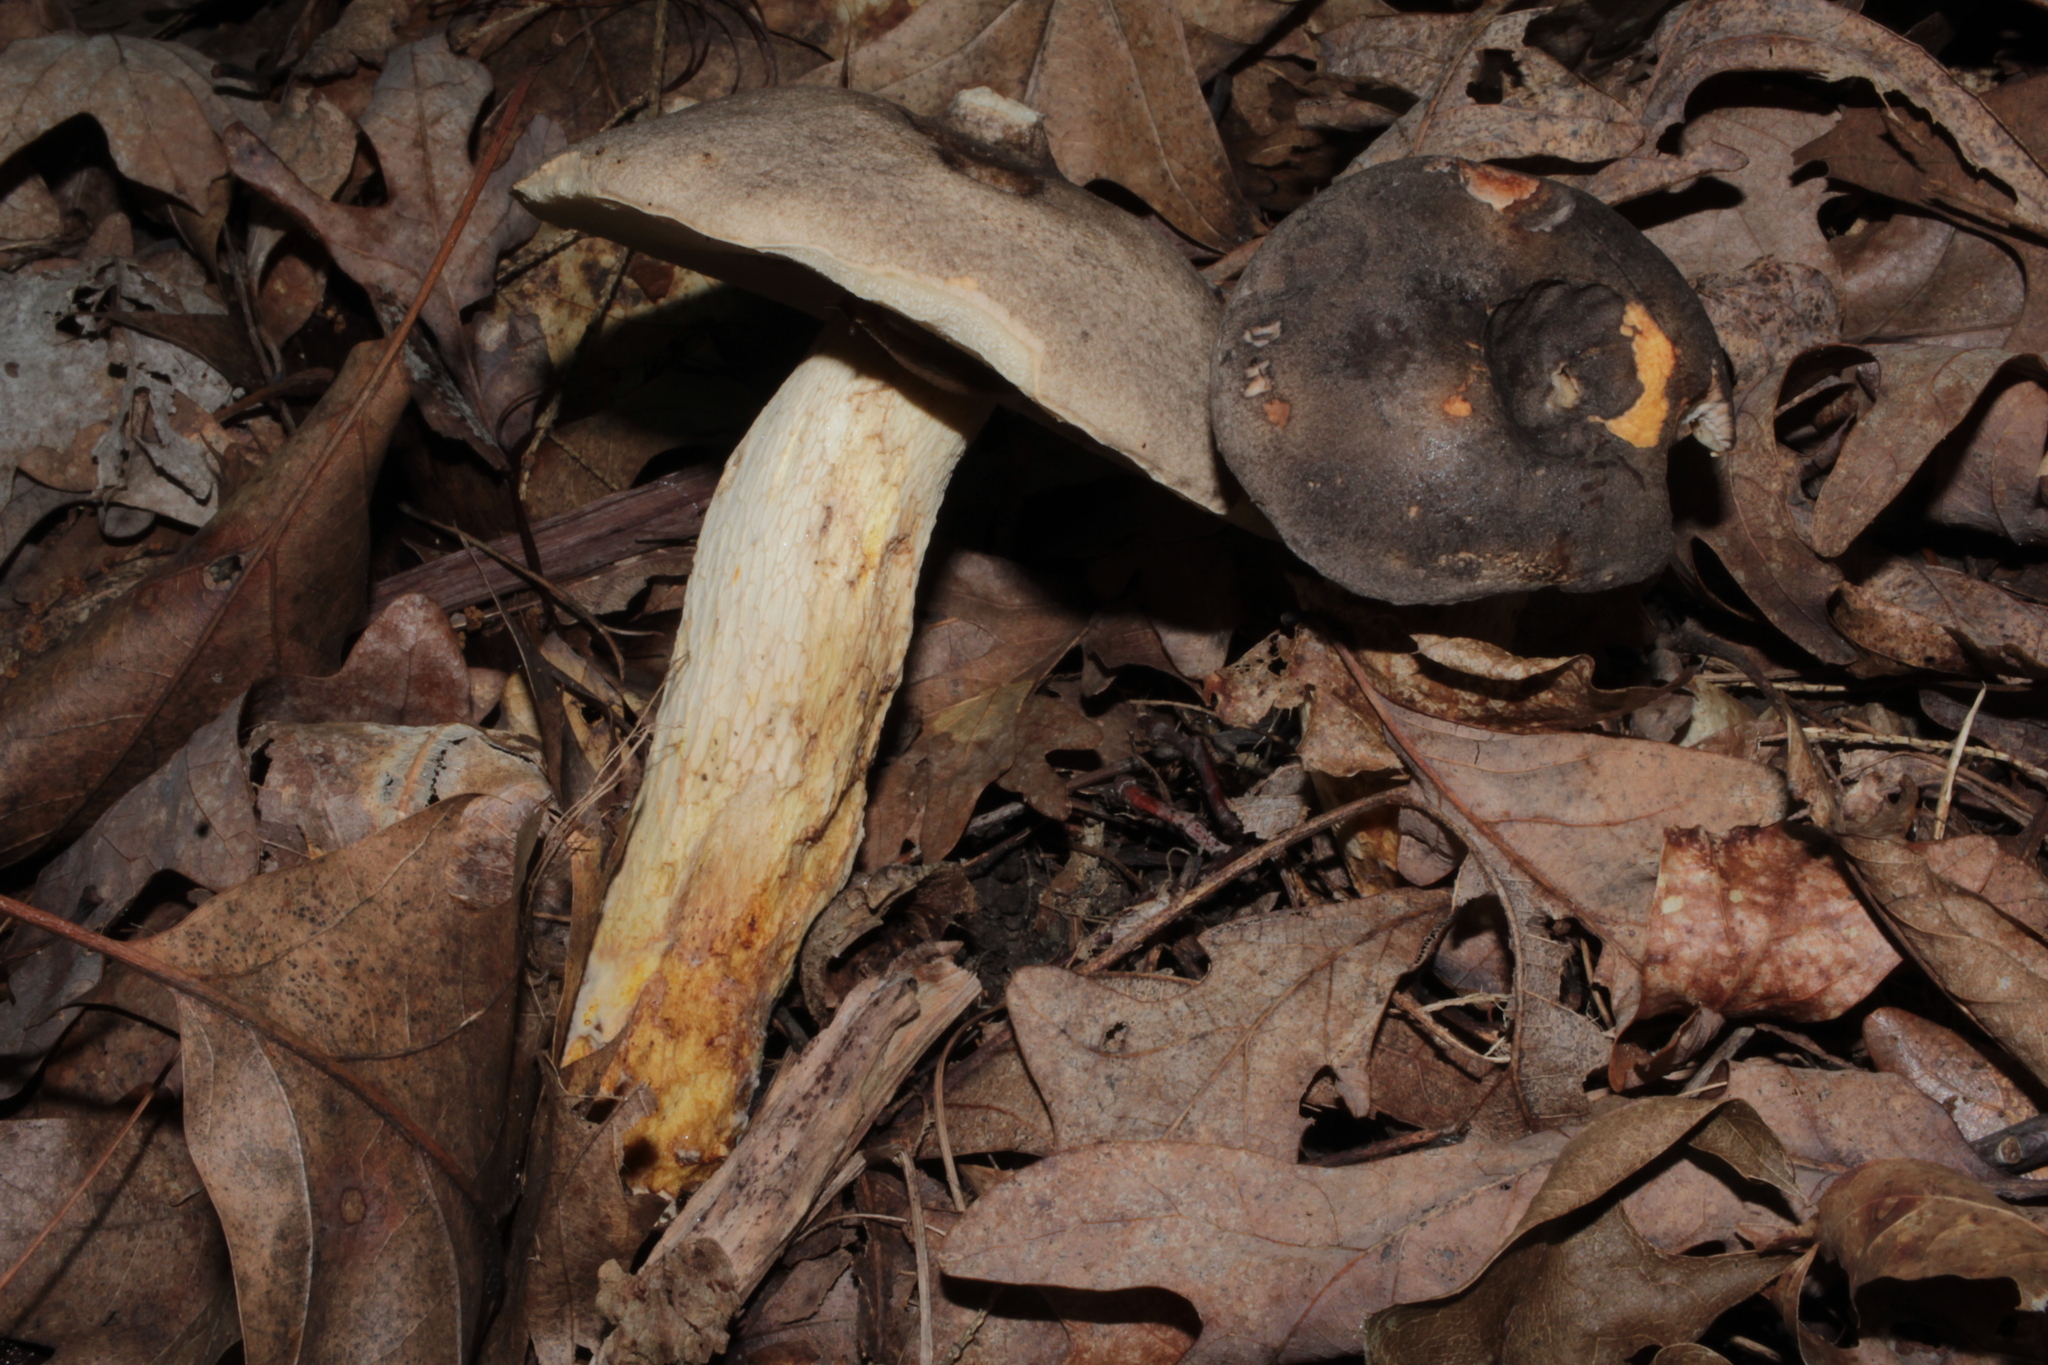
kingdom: Fungi
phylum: Basidiomycota
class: Agaricomycetes
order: Boletales
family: Boletaceae
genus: Retiboletus
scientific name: Retiboletus griseus
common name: Grey bolete
